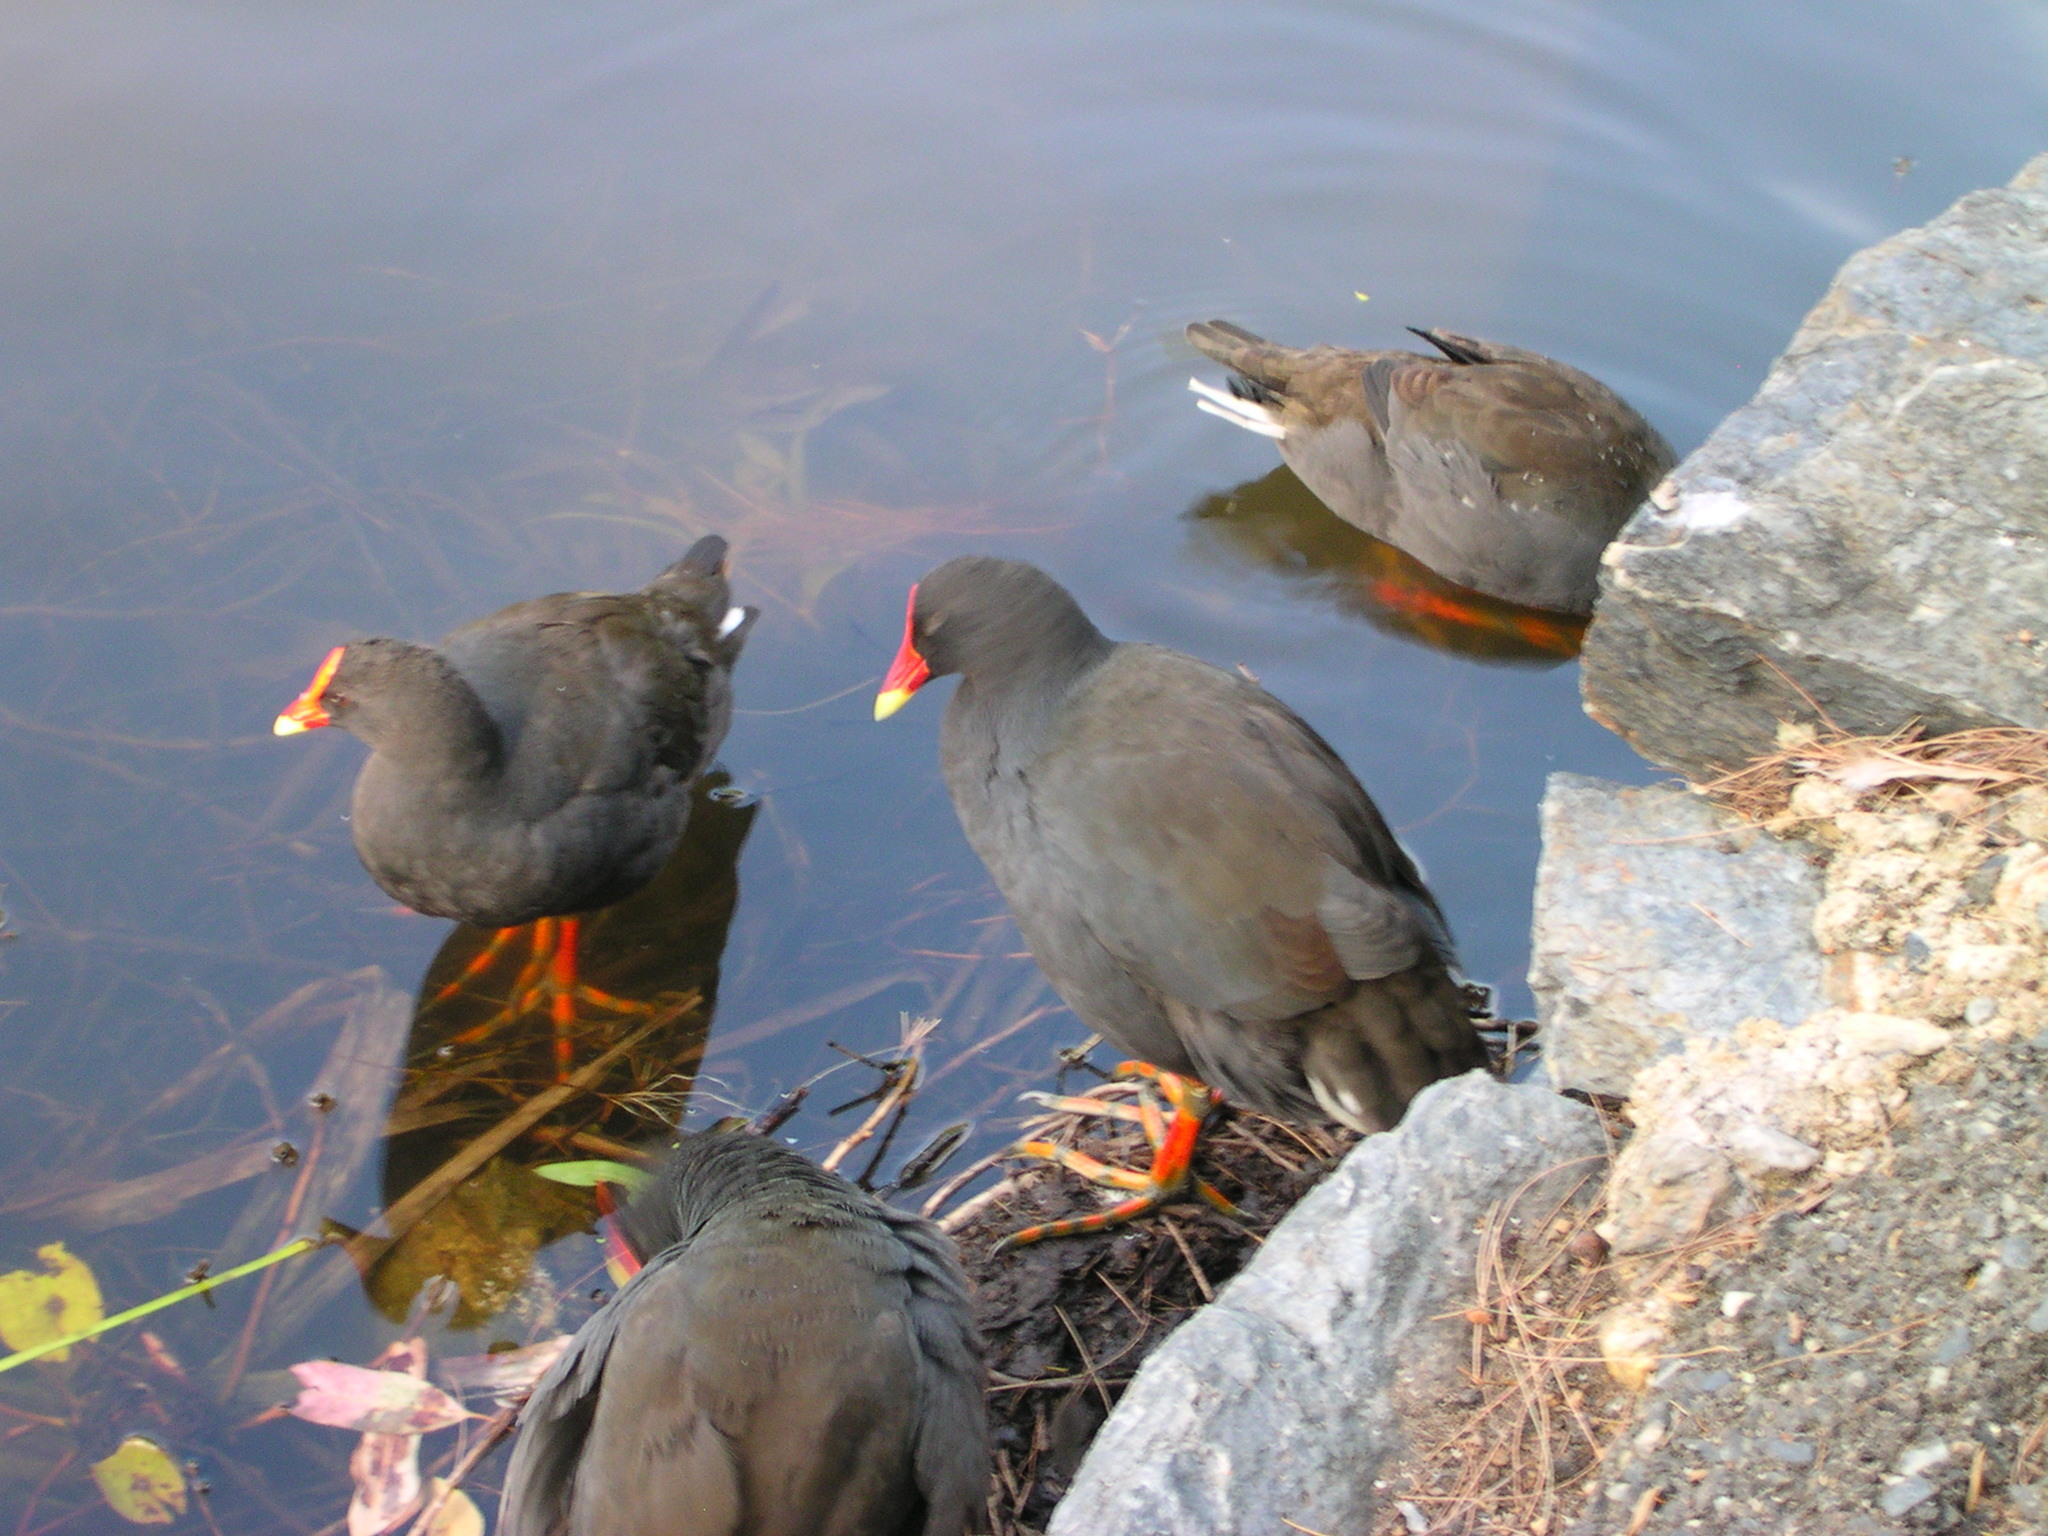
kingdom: Animalia
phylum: Chordata
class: Aves
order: Gruiformes
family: Rallidae
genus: Gallinula
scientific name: Gallinula tenebrosa
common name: Dusky moorhen
